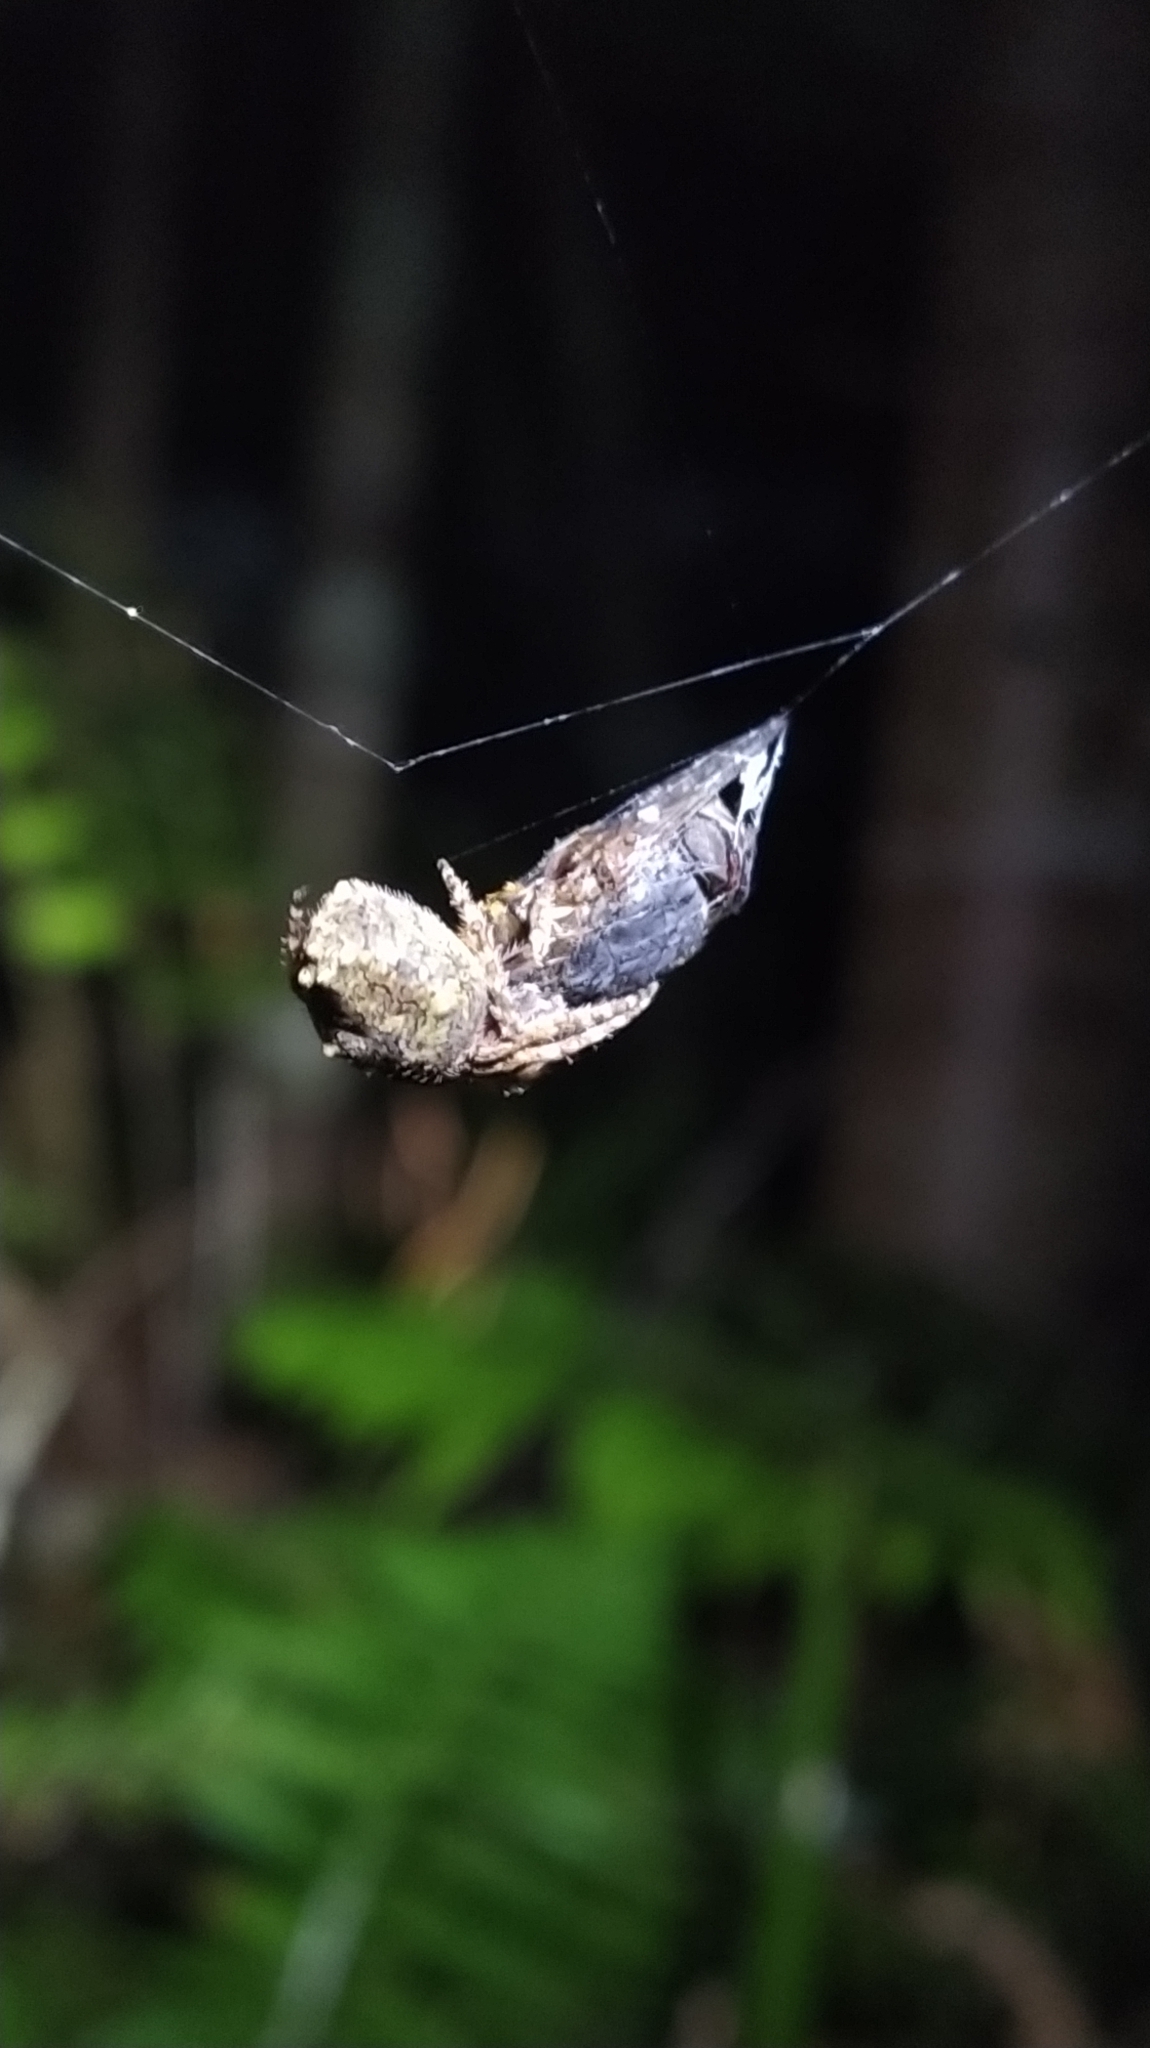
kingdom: Animalia
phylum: Arthropoda
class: Arachnida
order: Araneae
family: Araneidae
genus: Eriophora
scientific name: Eriophora pustulosa
